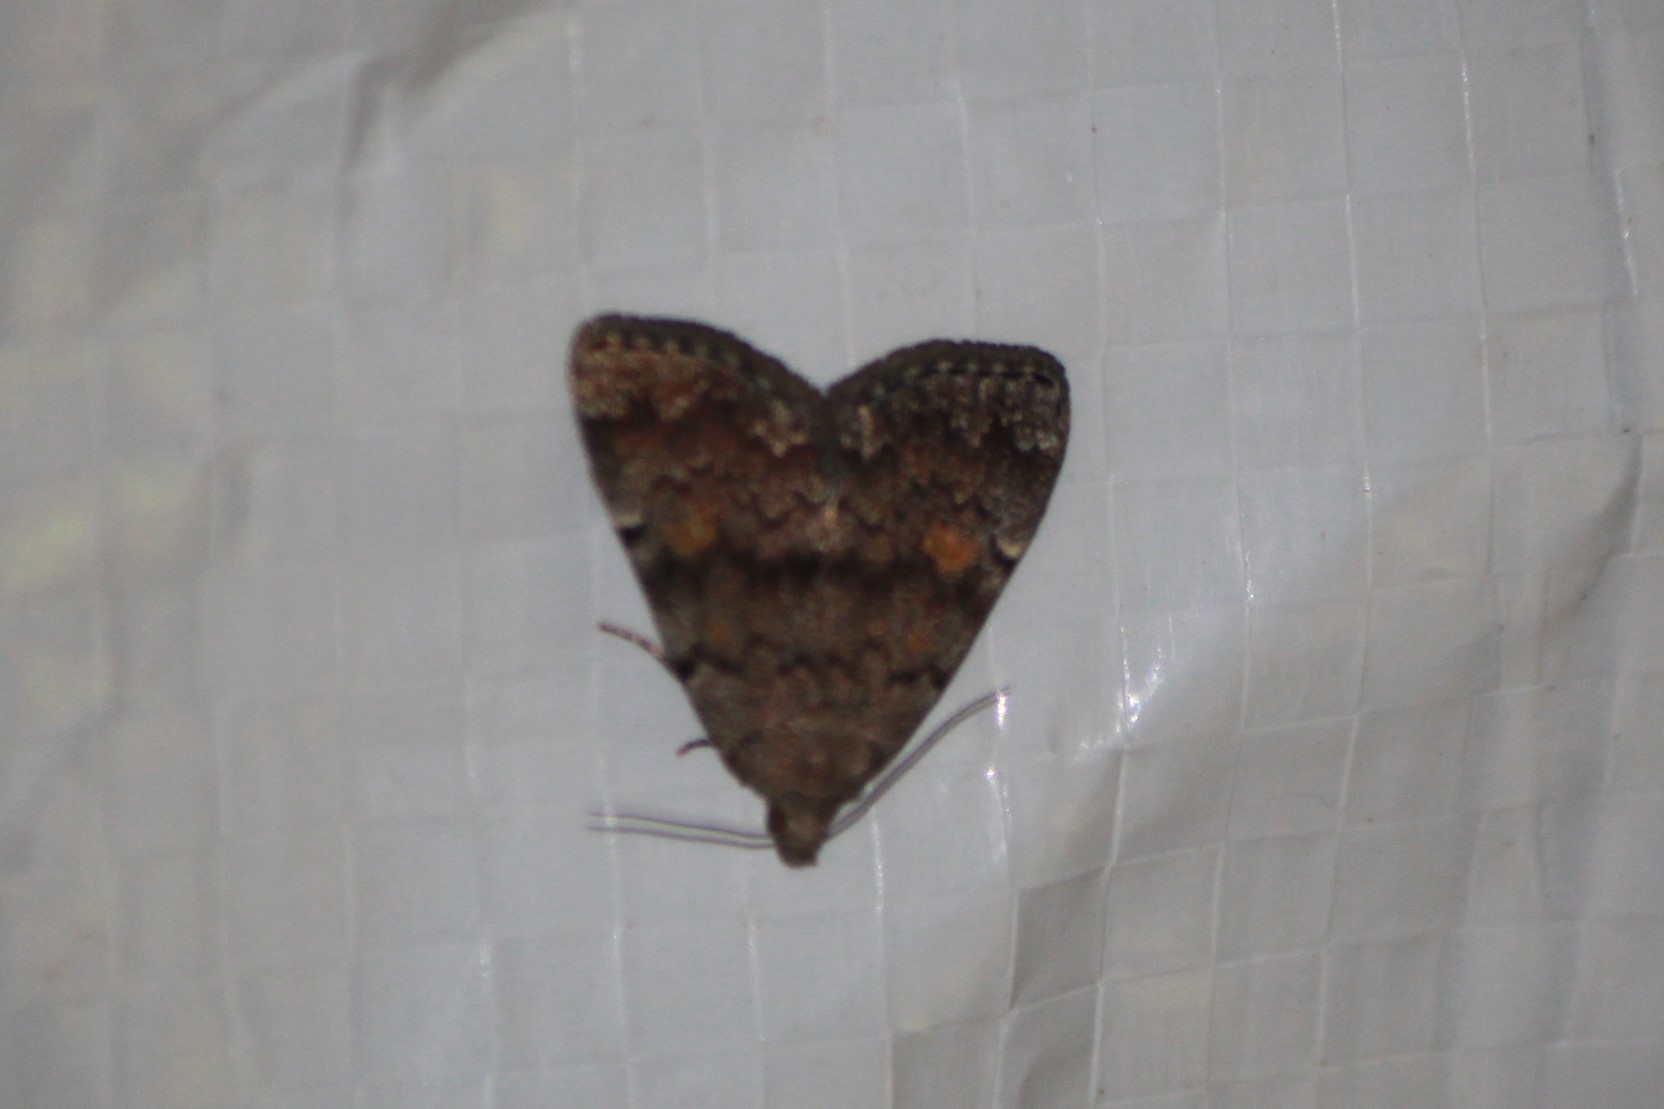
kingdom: Animalia
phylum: Arthropoda
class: Insecta
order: Lepidoptera
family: Erebidae
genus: Idia
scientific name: Idia aemula
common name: Common idia moth
